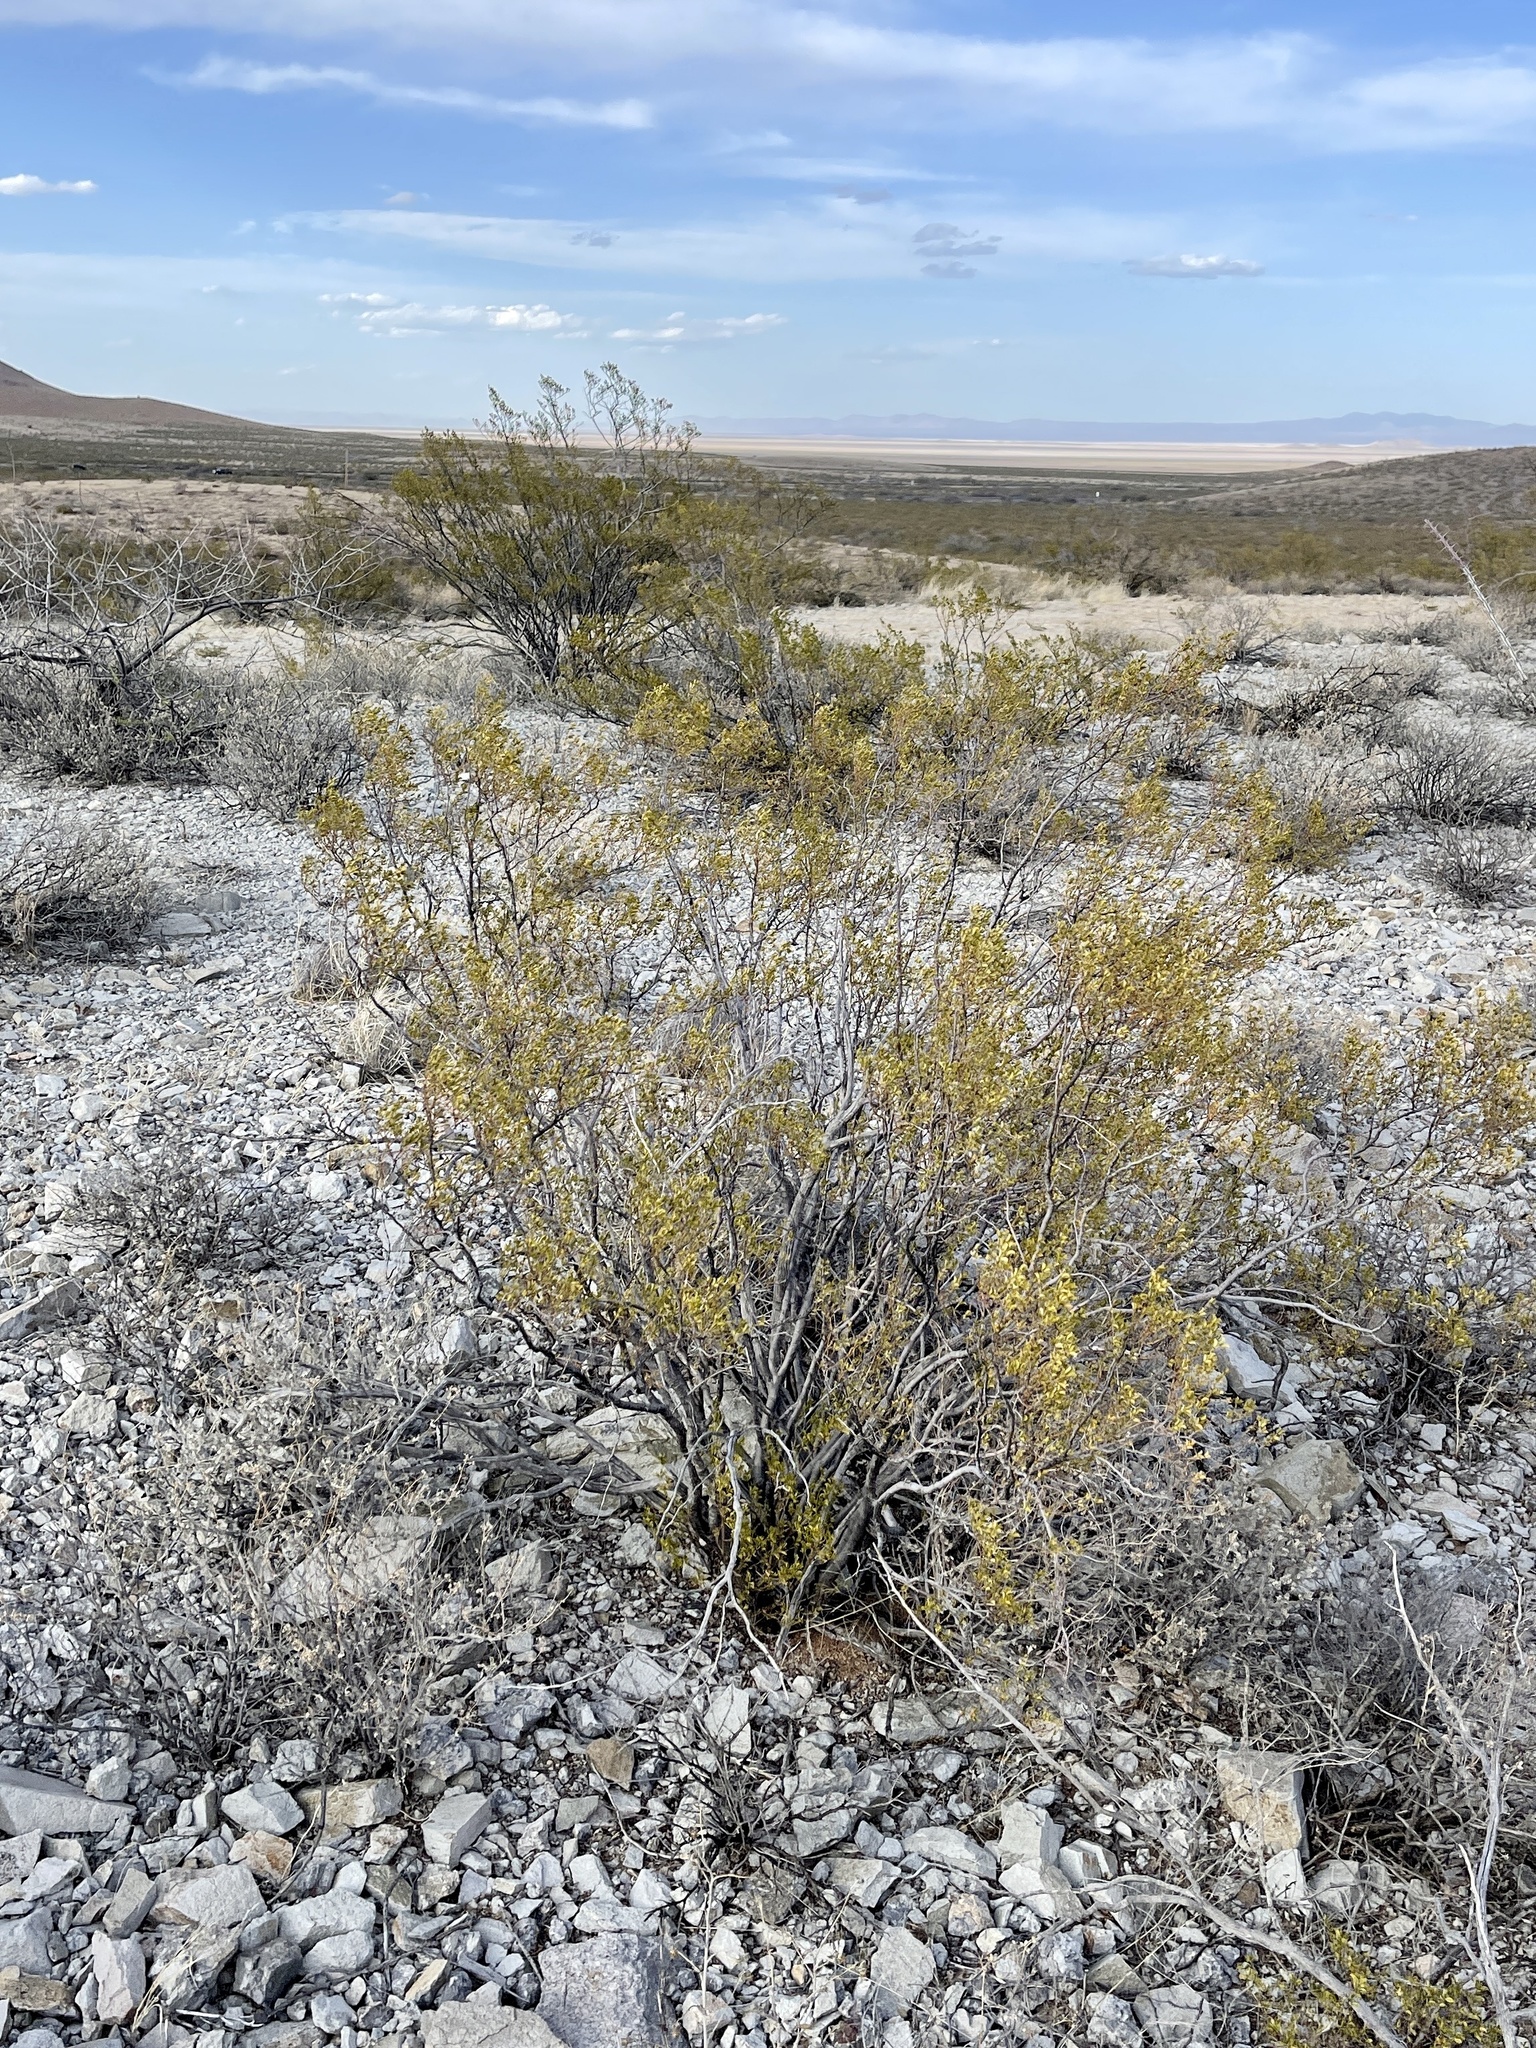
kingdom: Plantae
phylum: Tracheophyta
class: Magnoliopsida
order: Zygophyllales
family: Zygophyllaceae
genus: Larrea
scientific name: Larrea tridentata
